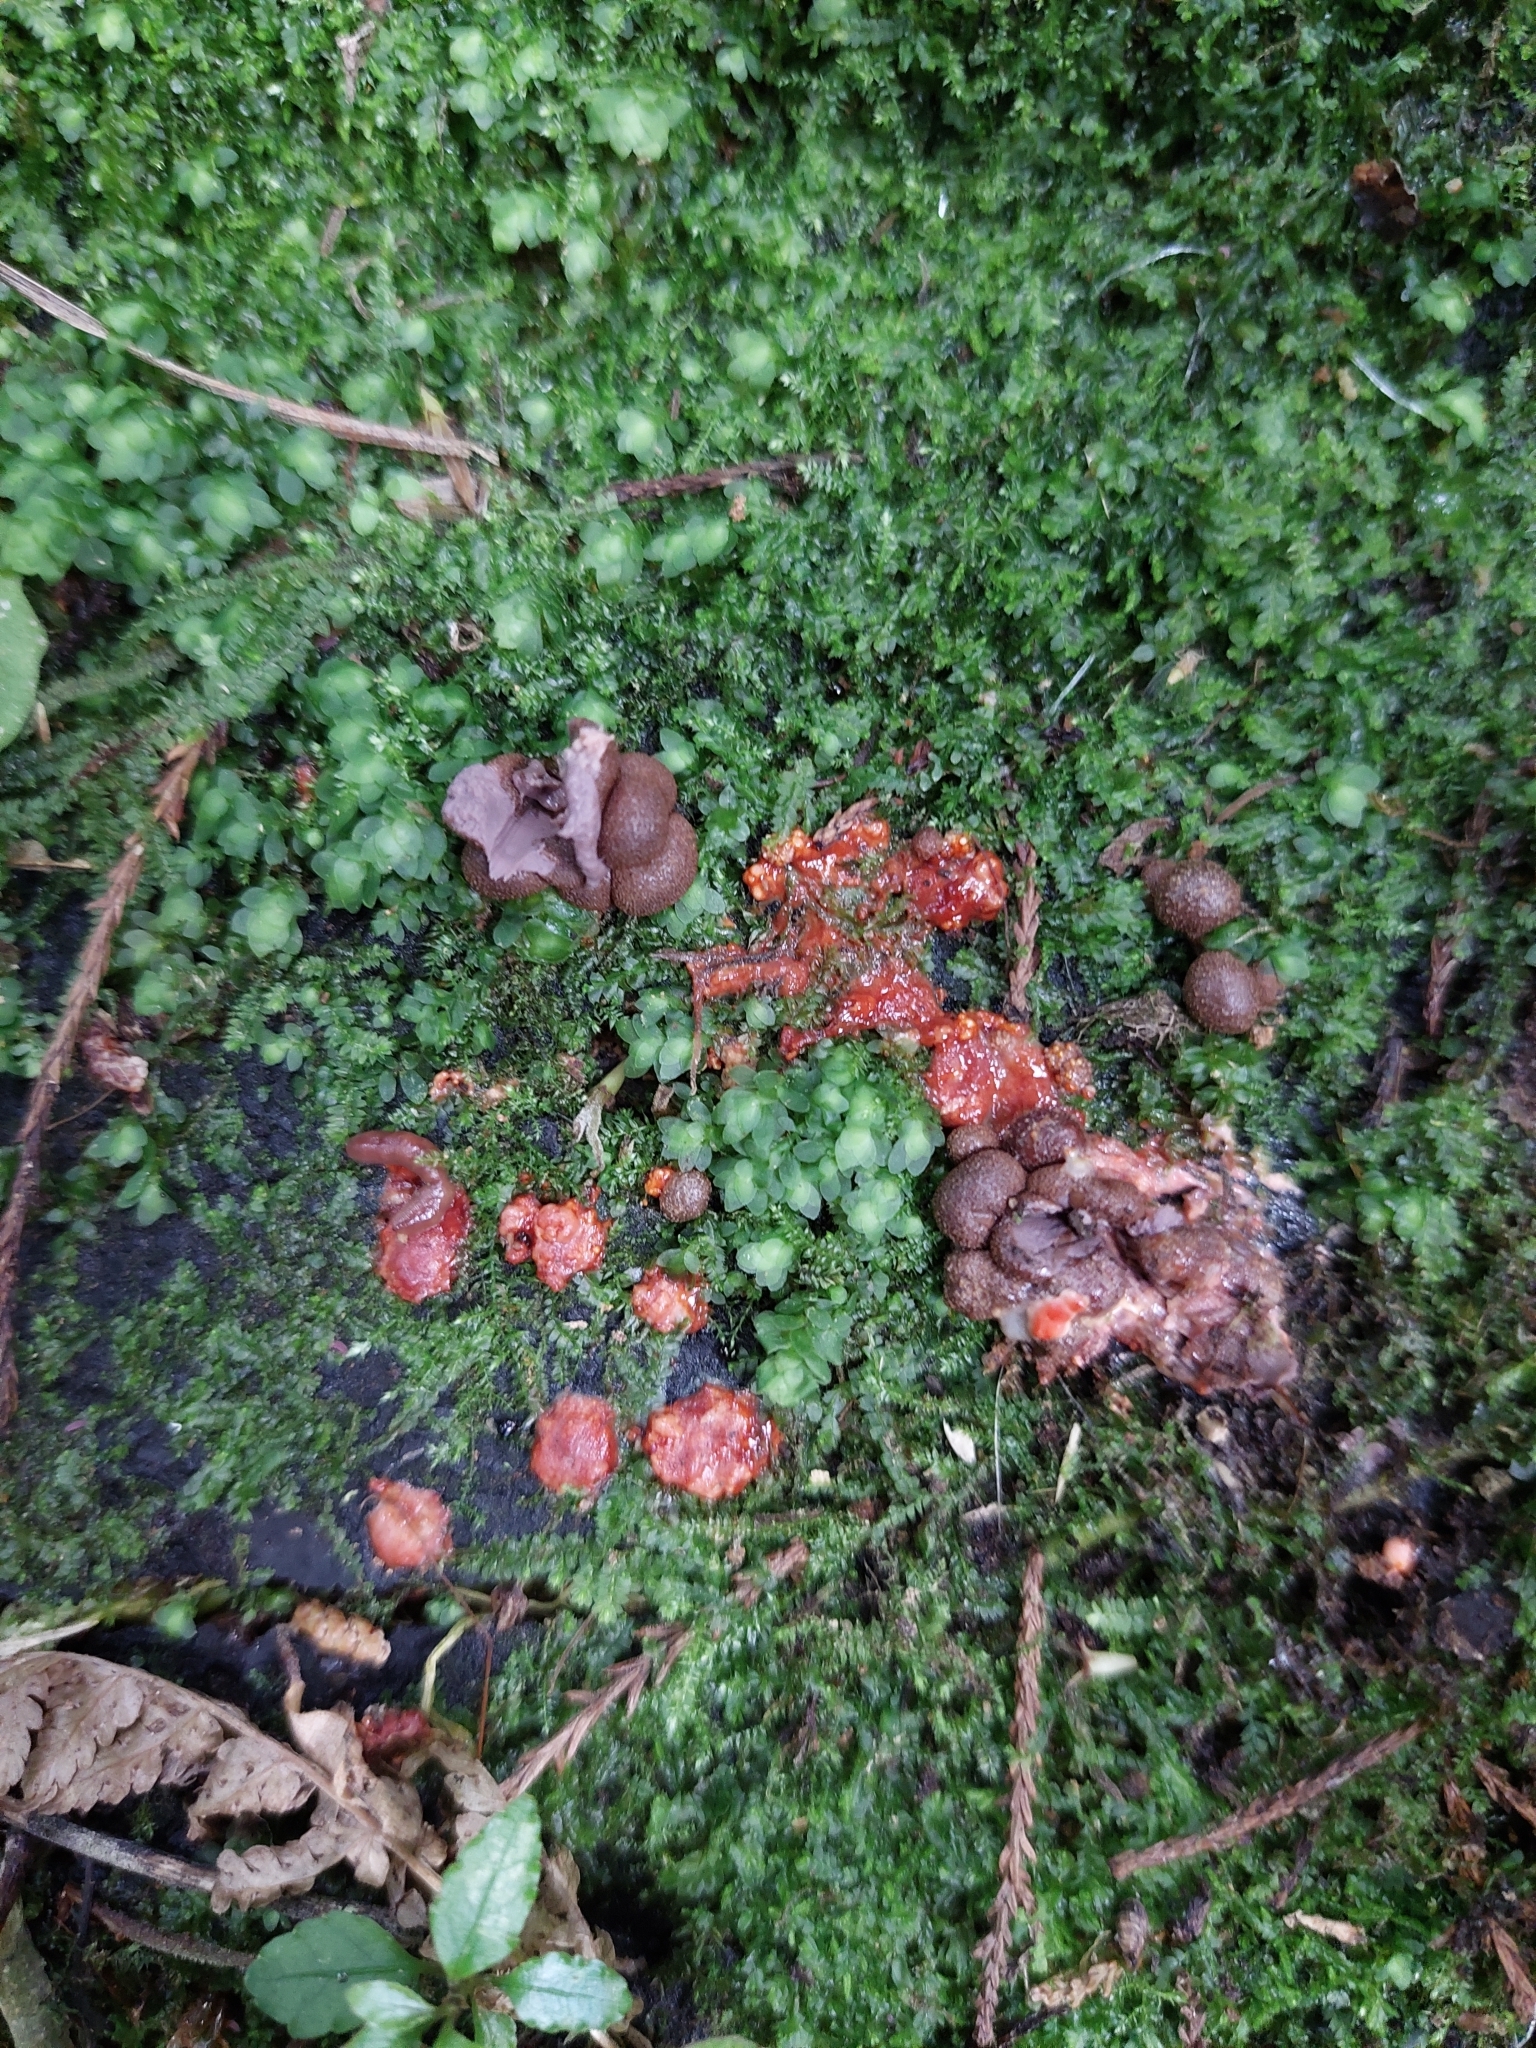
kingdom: Protozoa
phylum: Mycetozoa
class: Myxomycetes
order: Cribrariales
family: Tubiferaceae
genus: Lycogala
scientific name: Lycogala epidendrum
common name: Wolf's milk
